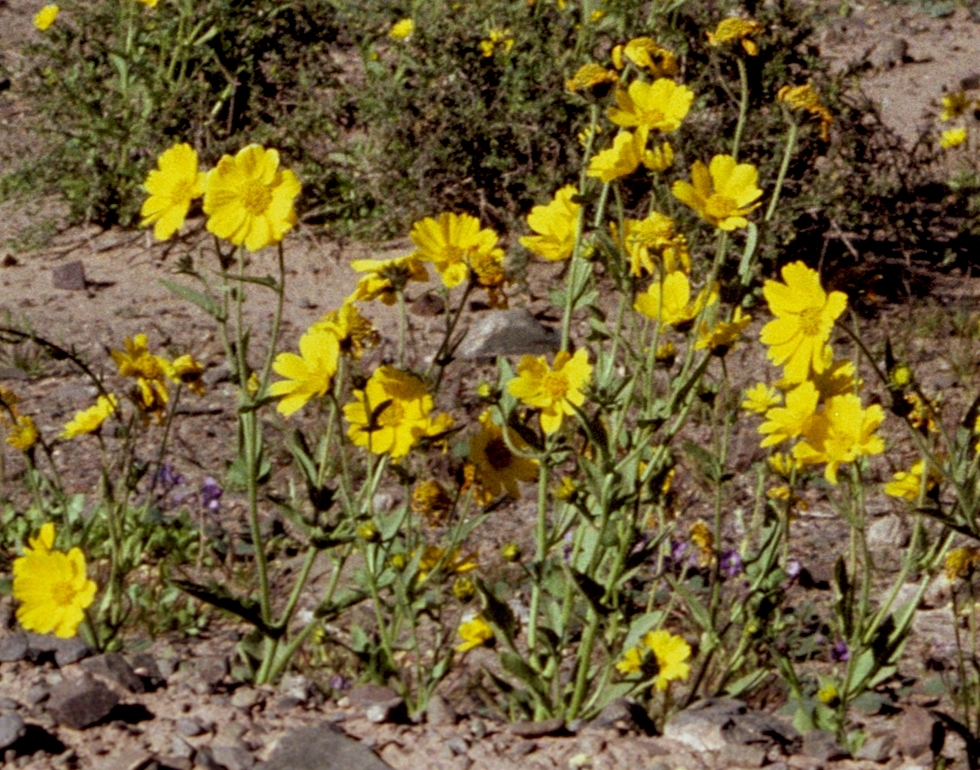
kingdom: Plantae
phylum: Tracheophyta
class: Magnoliopsida
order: Asterales
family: Asteraceae
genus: Verbesina
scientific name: Verbesina aurita
